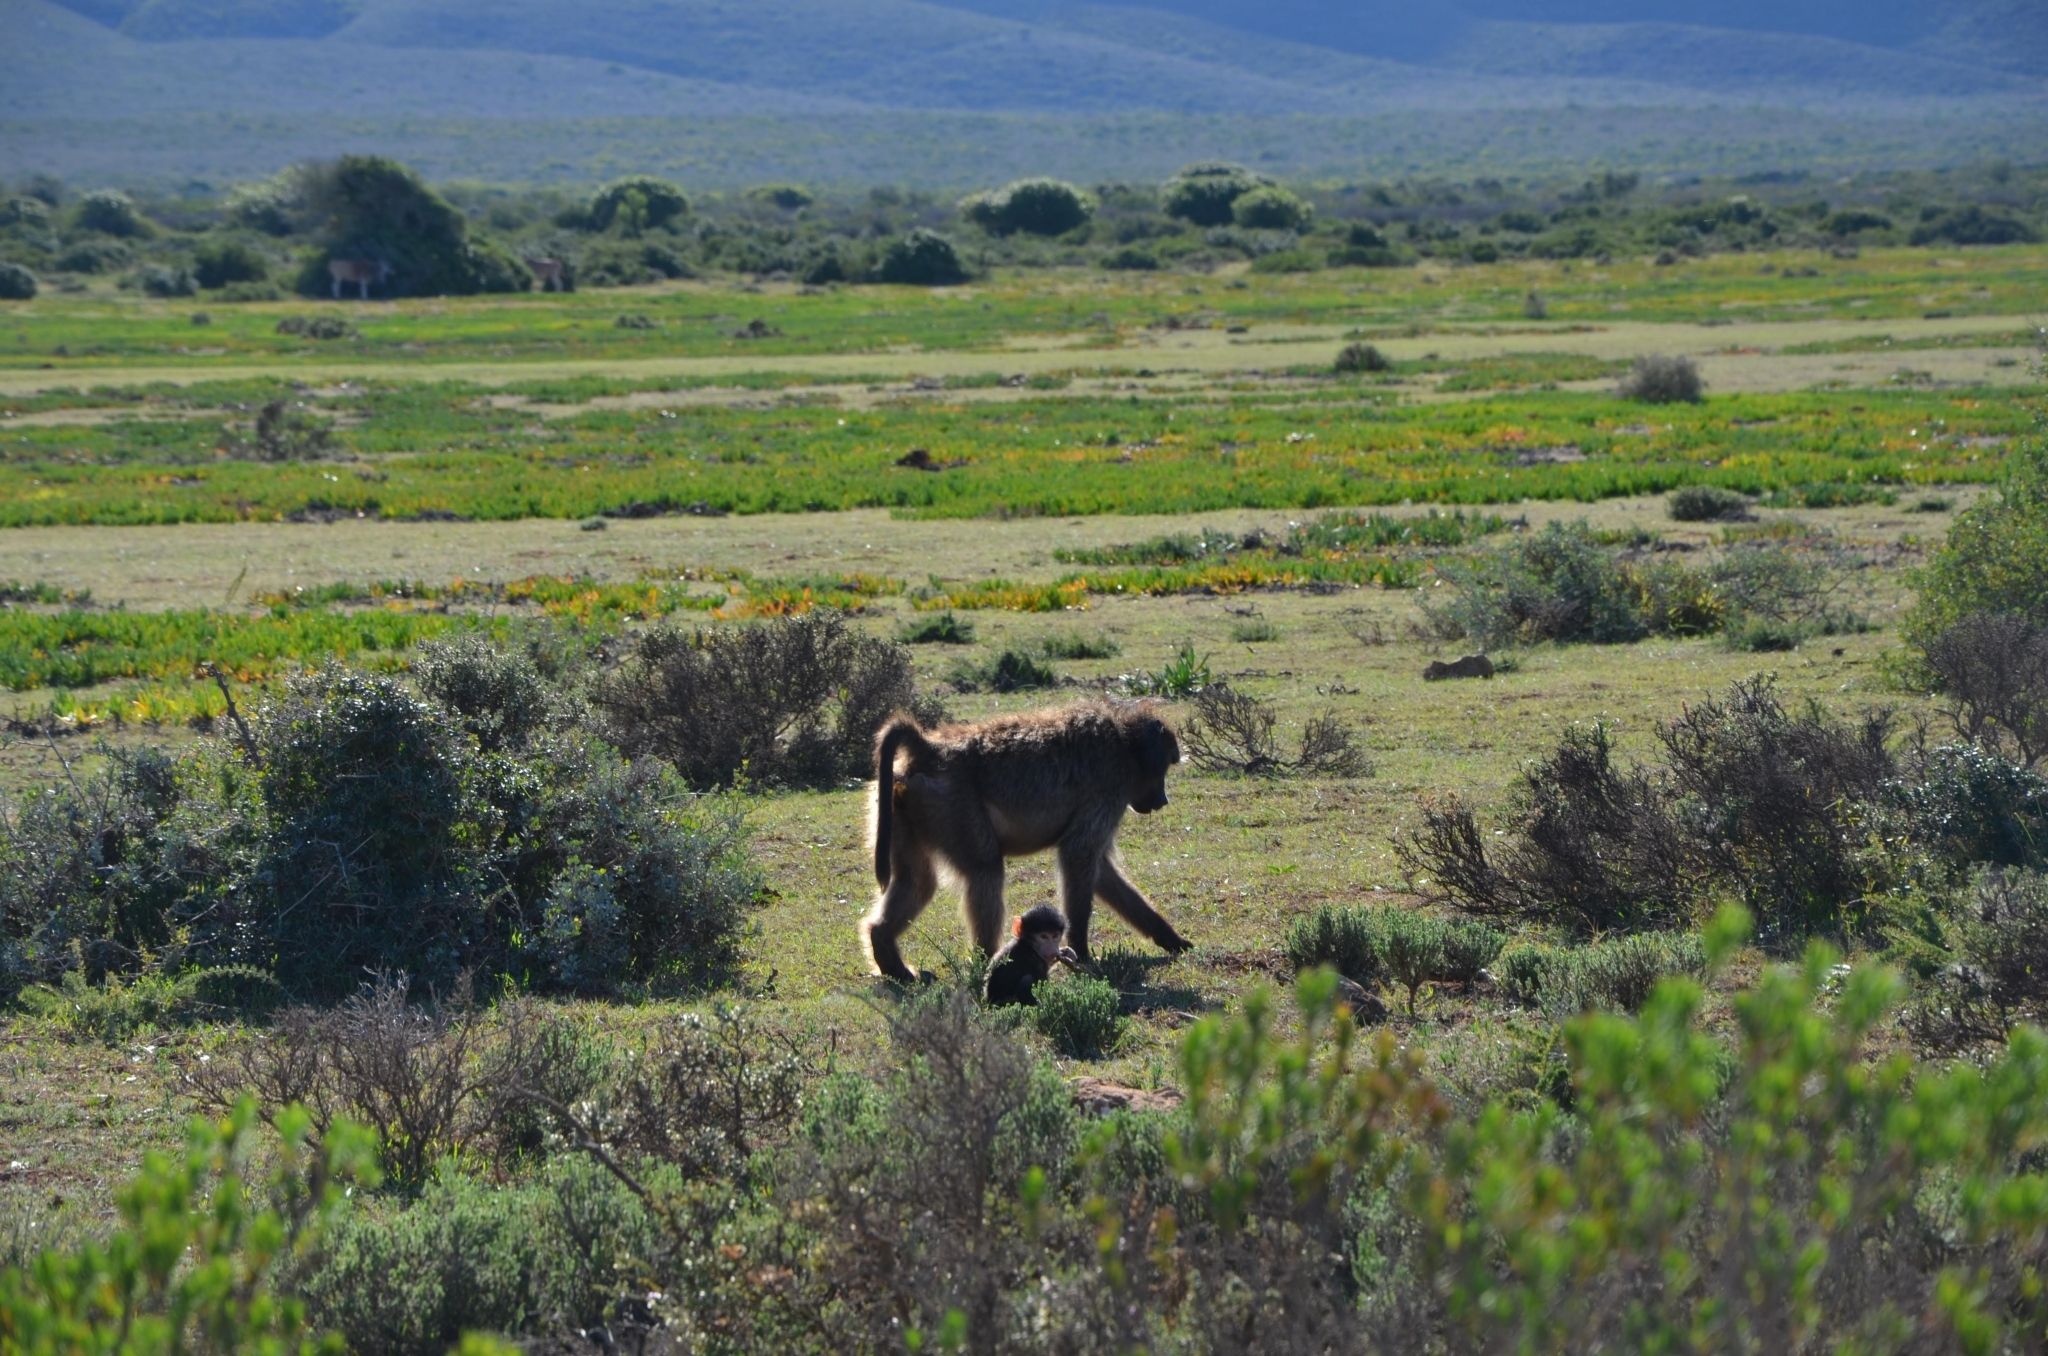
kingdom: Animalia
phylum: Chordata
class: Mammalia
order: Primates
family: Cercopithecidae
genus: Papio
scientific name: Papio ursinus
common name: Chacma baboon
